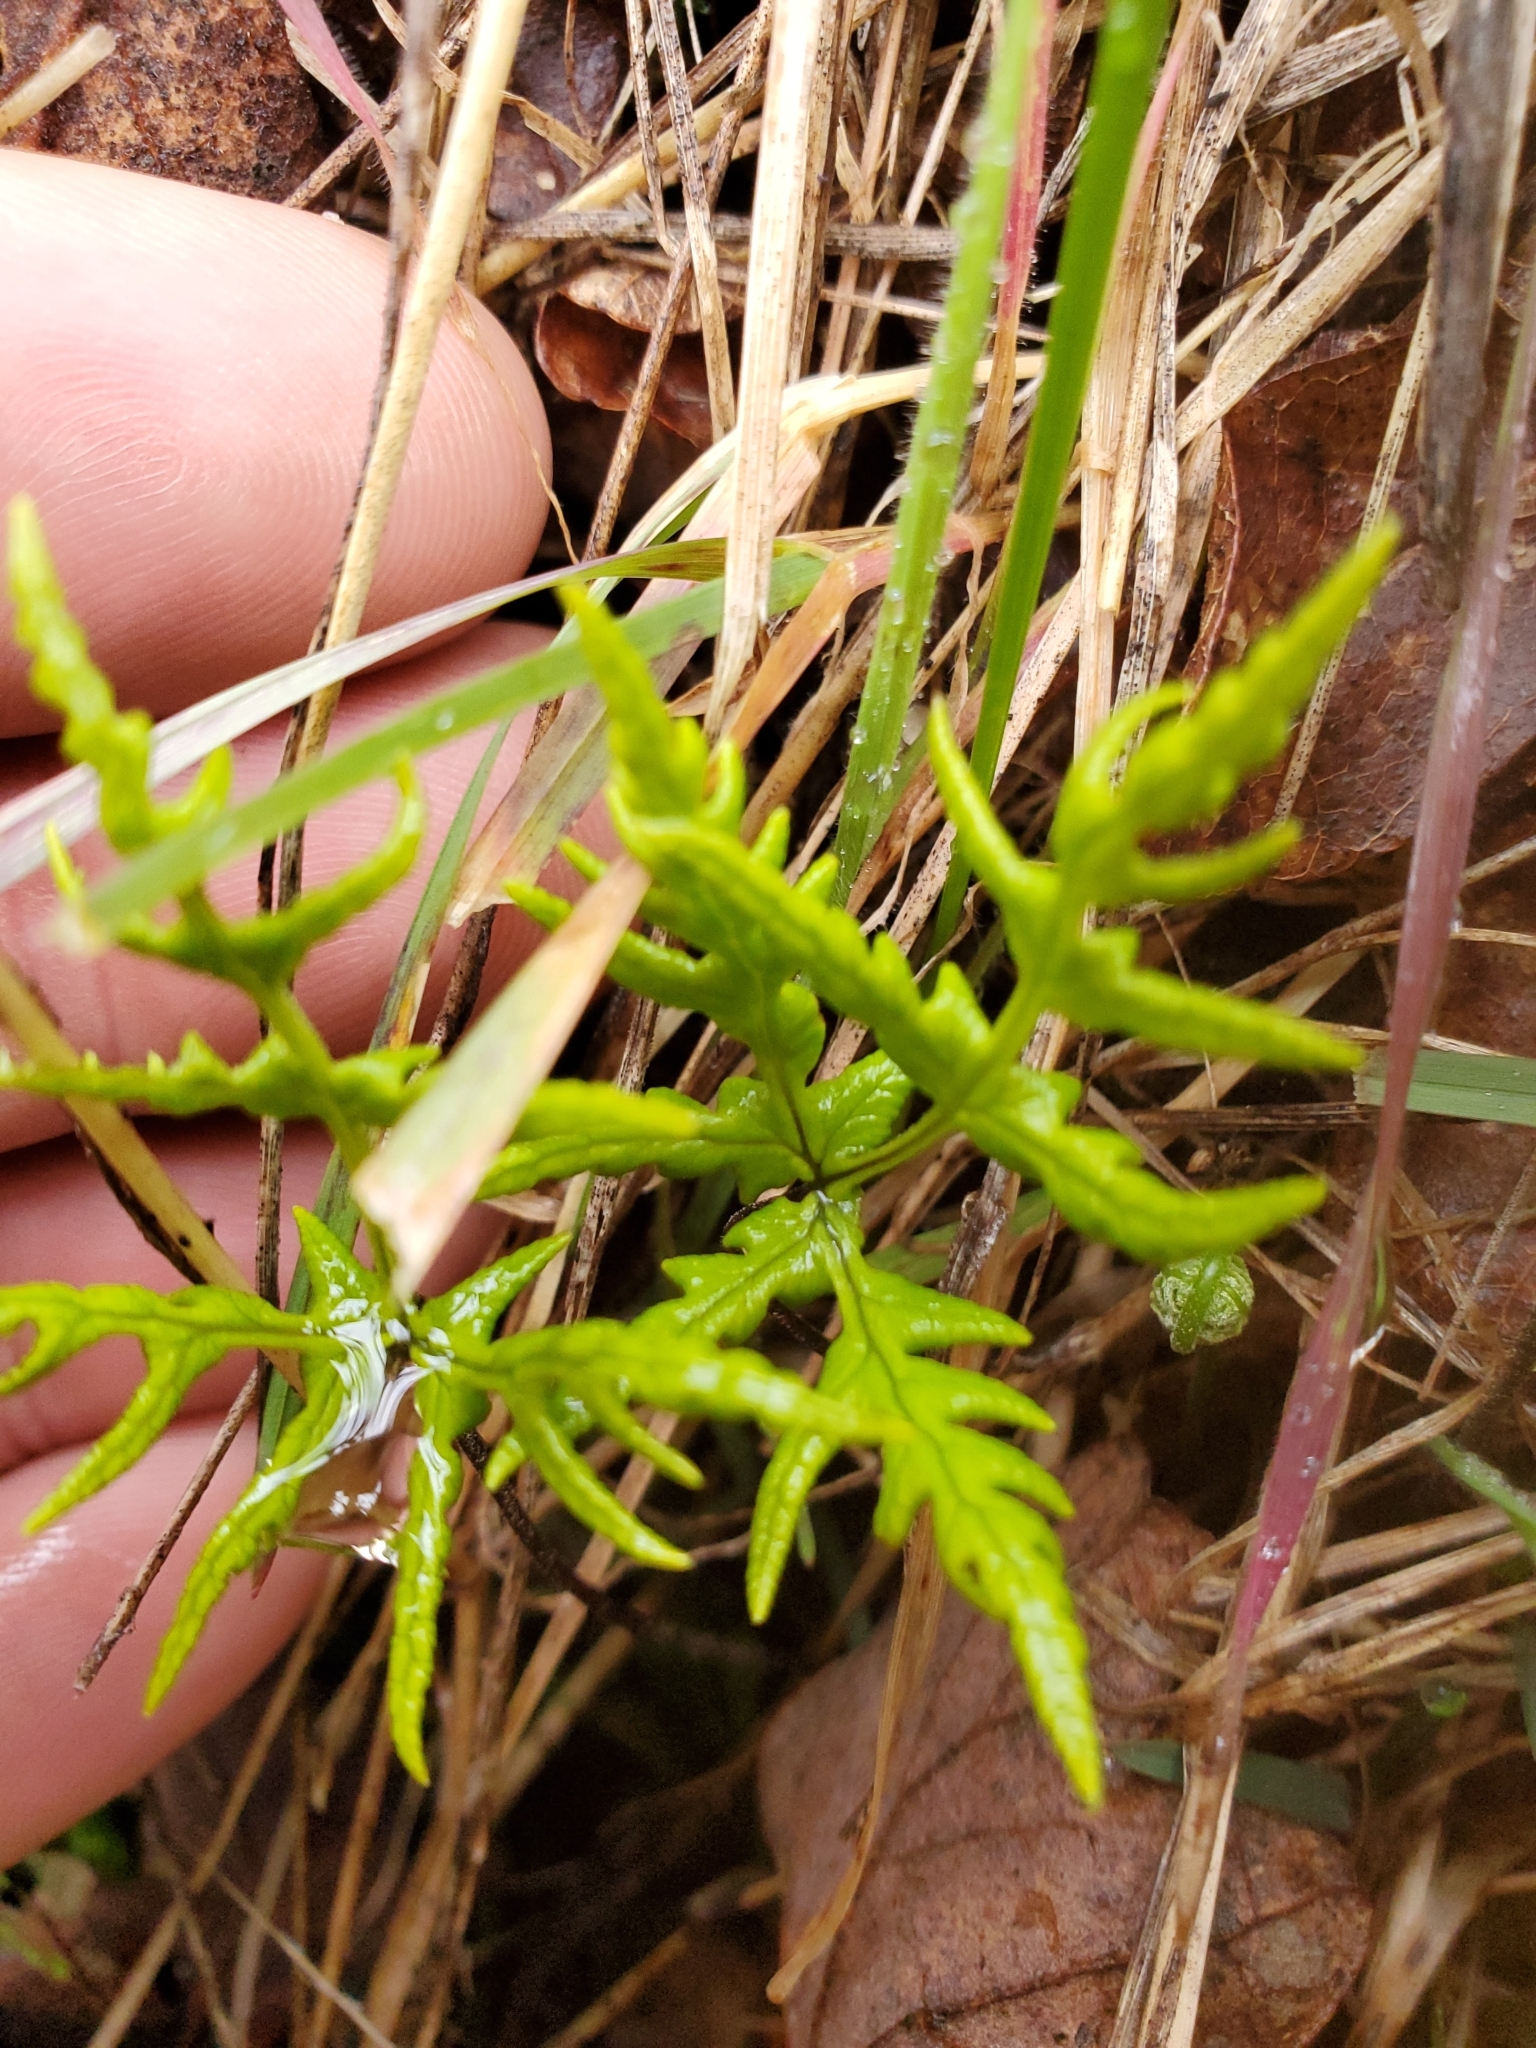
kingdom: Plantae
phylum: Tracheophyta
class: Polypodiopsida
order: Polypodiales
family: Pteridaceae
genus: Pentagramma
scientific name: Pentagramma triangularis
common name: Gold fern
